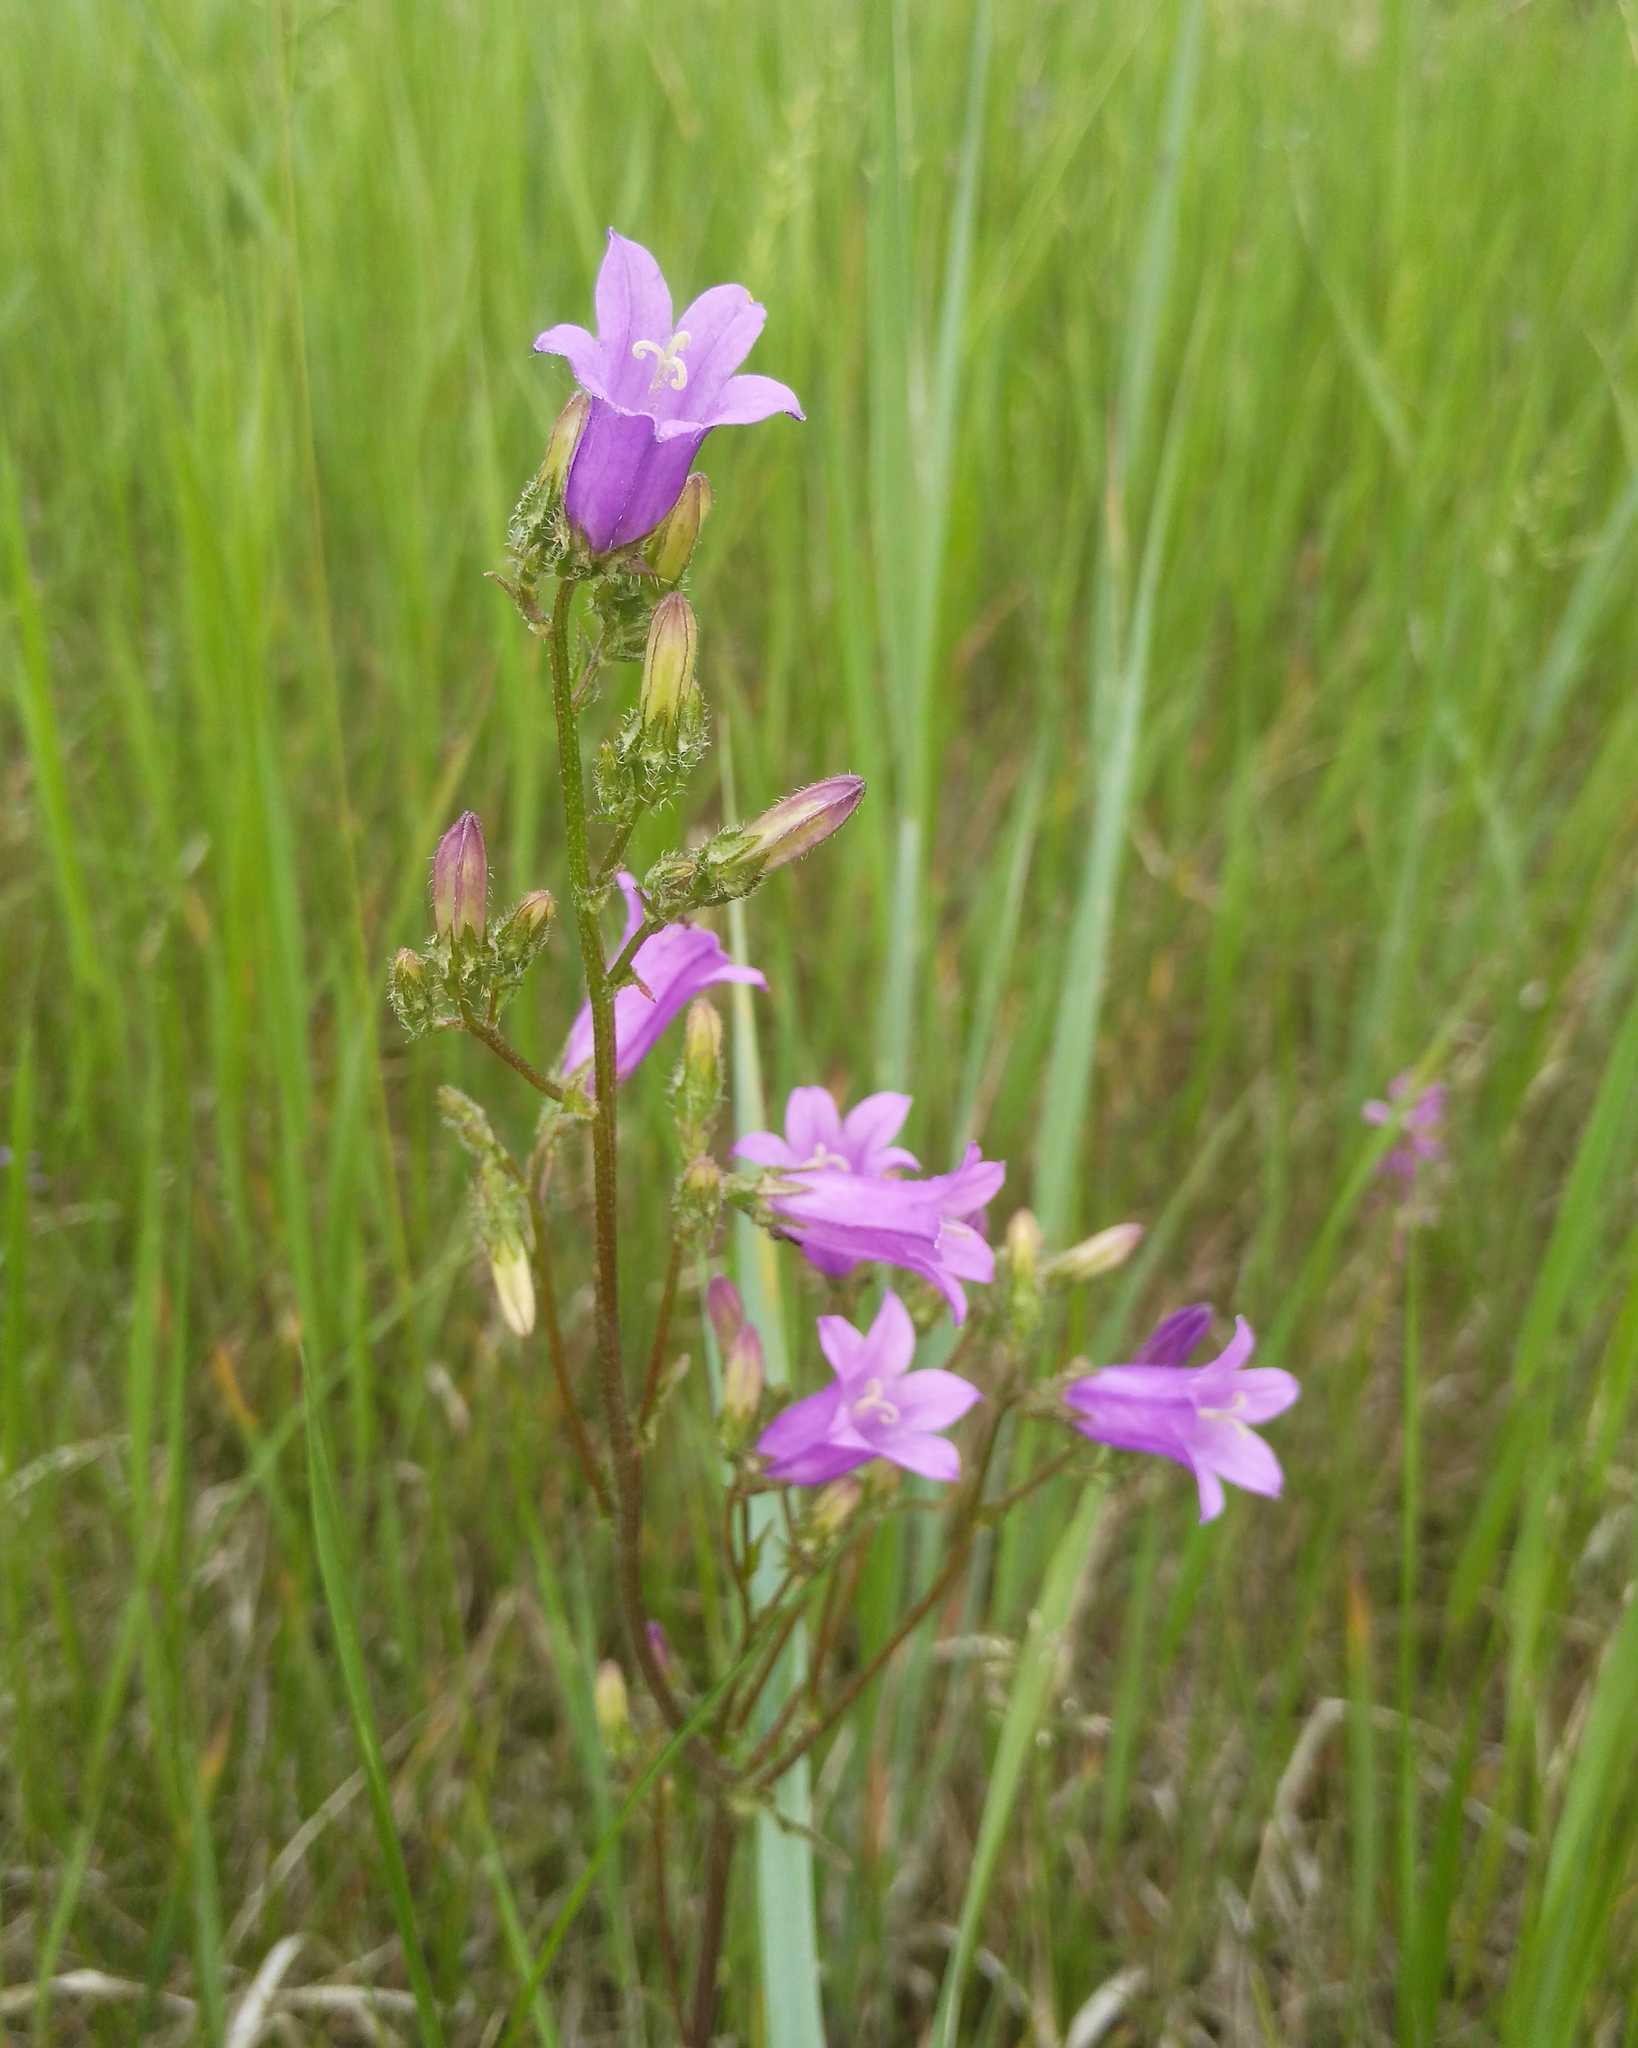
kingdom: Plantae
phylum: Tracheophyta
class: Magnoliopsida
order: Asterales
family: Campanulaceae
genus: Campanula
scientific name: Campanula sibirica
